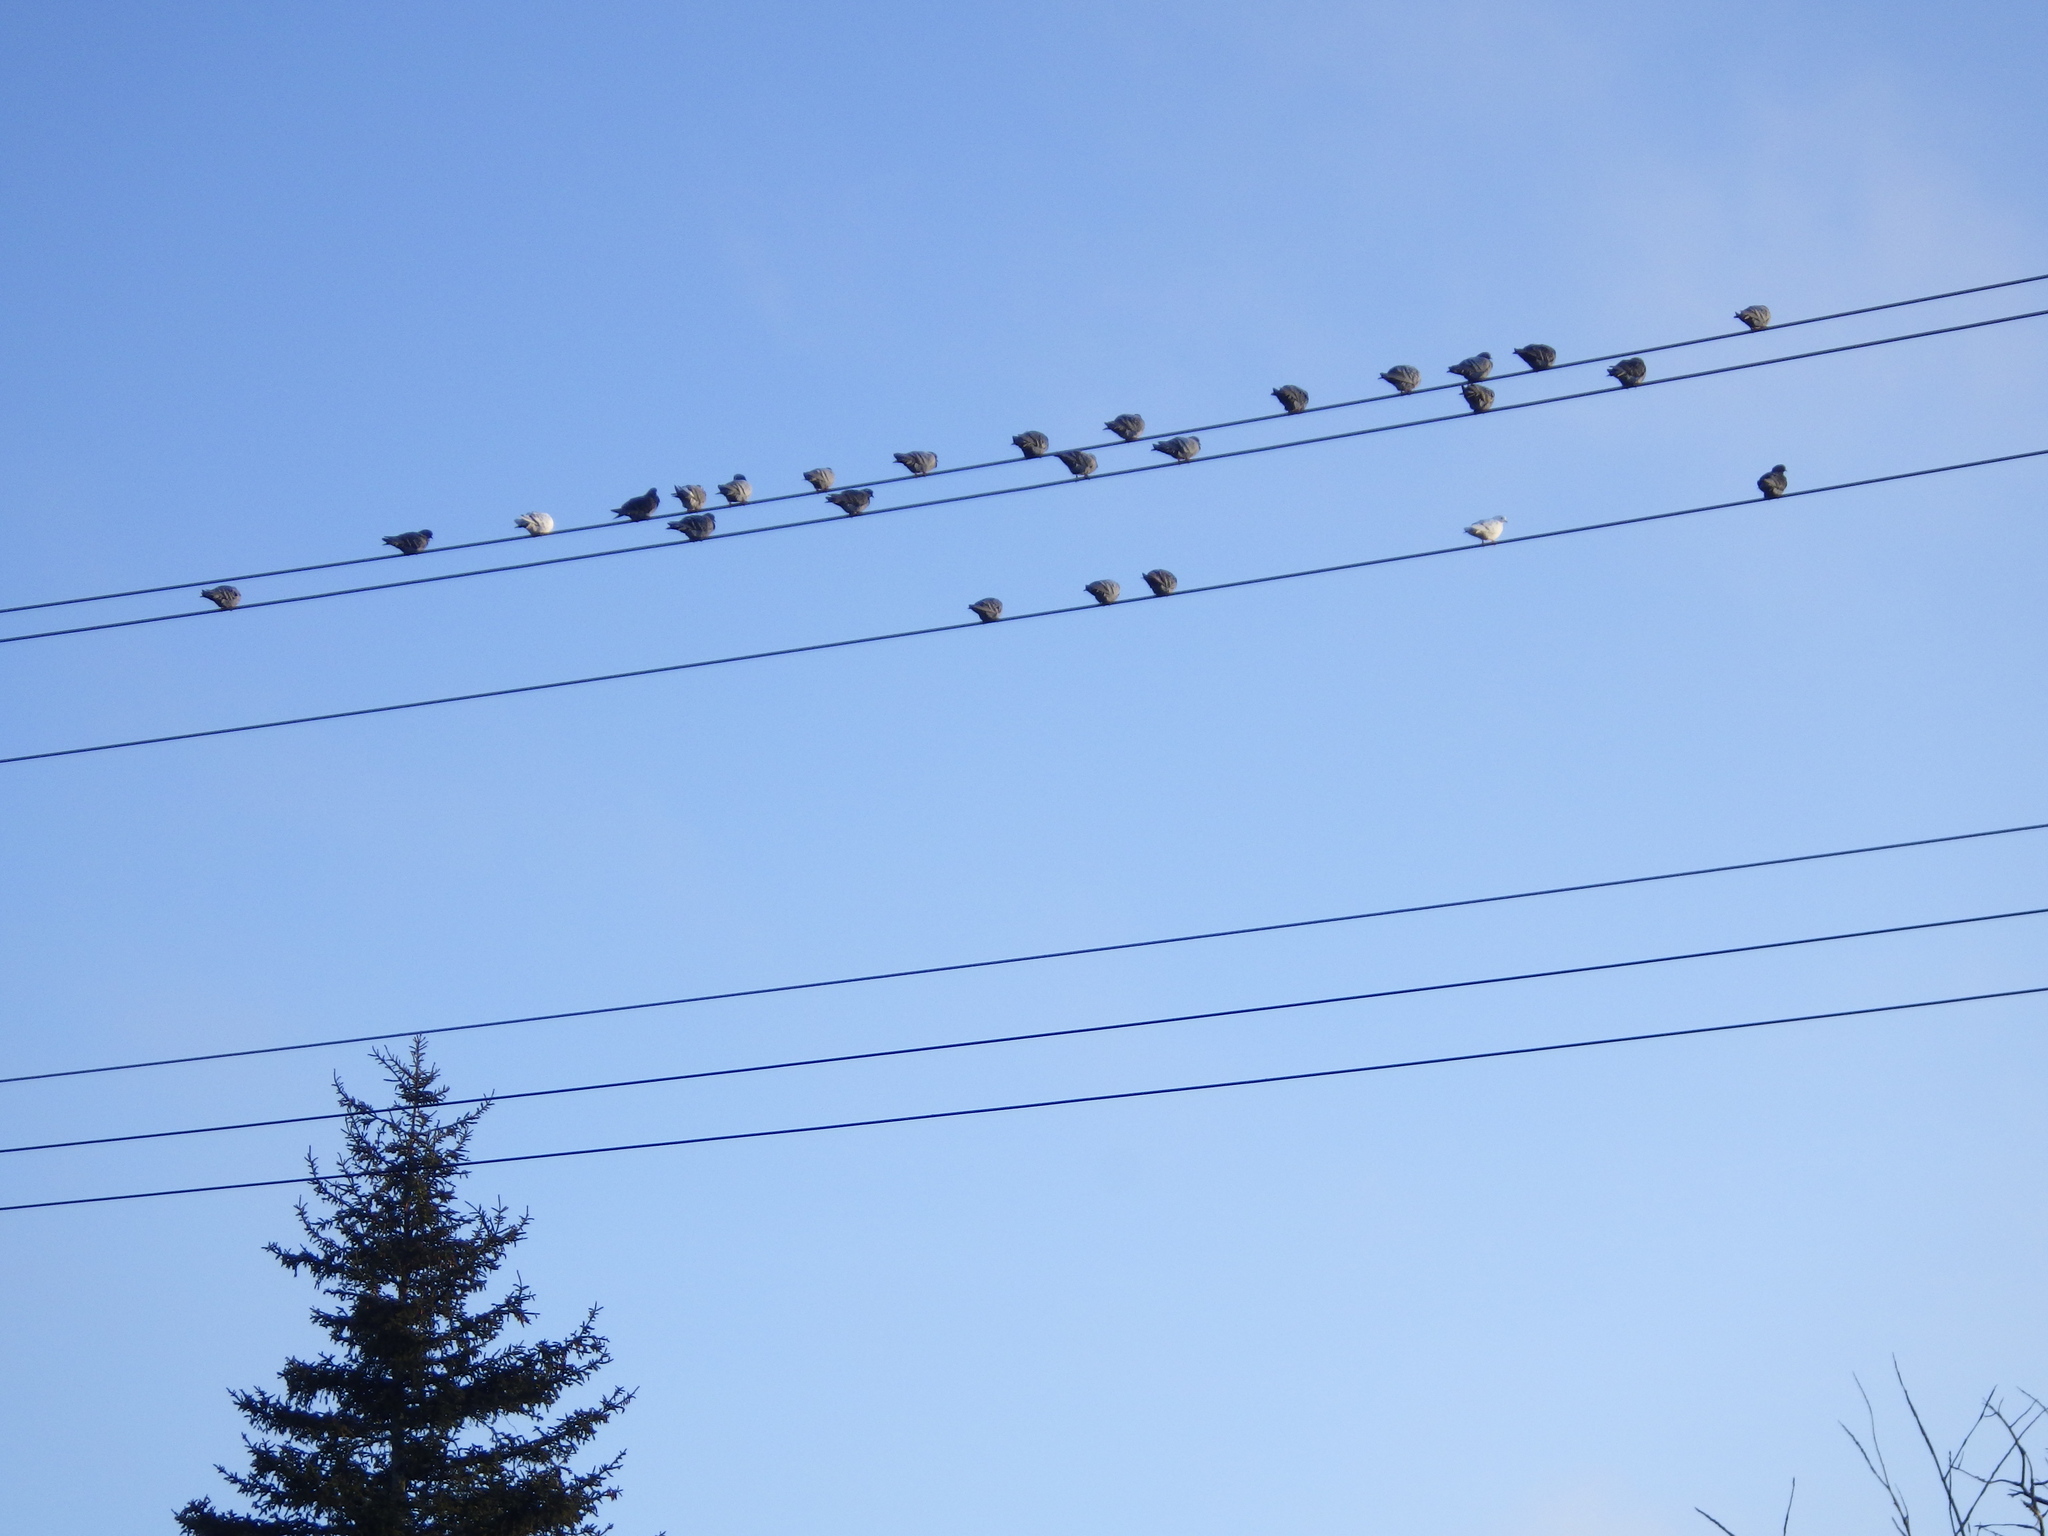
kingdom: Animalia
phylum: Chordata
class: Aves
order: Columbiformes
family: Columbidae
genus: Columba
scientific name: Columba livia
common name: Rock pigeon
